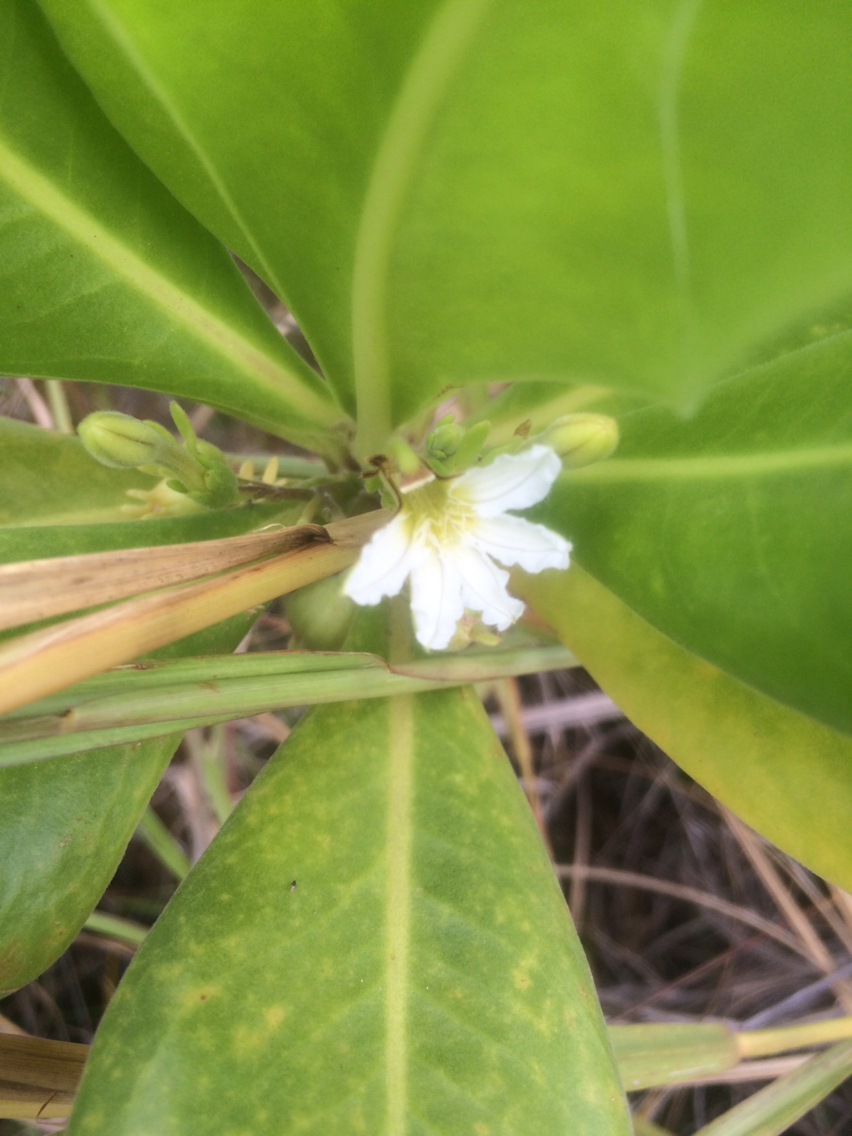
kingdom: Plantae
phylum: Tracheophyta
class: Magnoliopsida
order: Asterales
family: Goodeniaceae
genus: Scaevola
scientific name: Scaevola taccada
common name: Sea lettucetree
